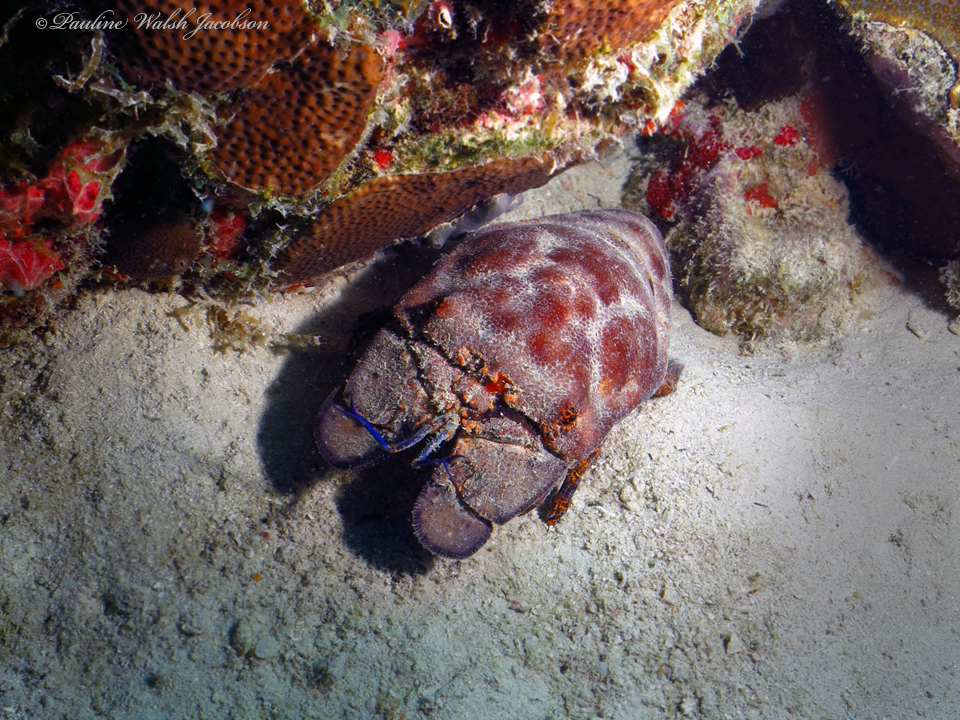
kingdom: Animalia
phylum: Arthropoda
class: Malacostraca
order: Decapoda
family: Scyllaridae
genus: Scyllarides
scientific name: Scyllarides aequinoctialis
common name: Spanish slipper lobster
